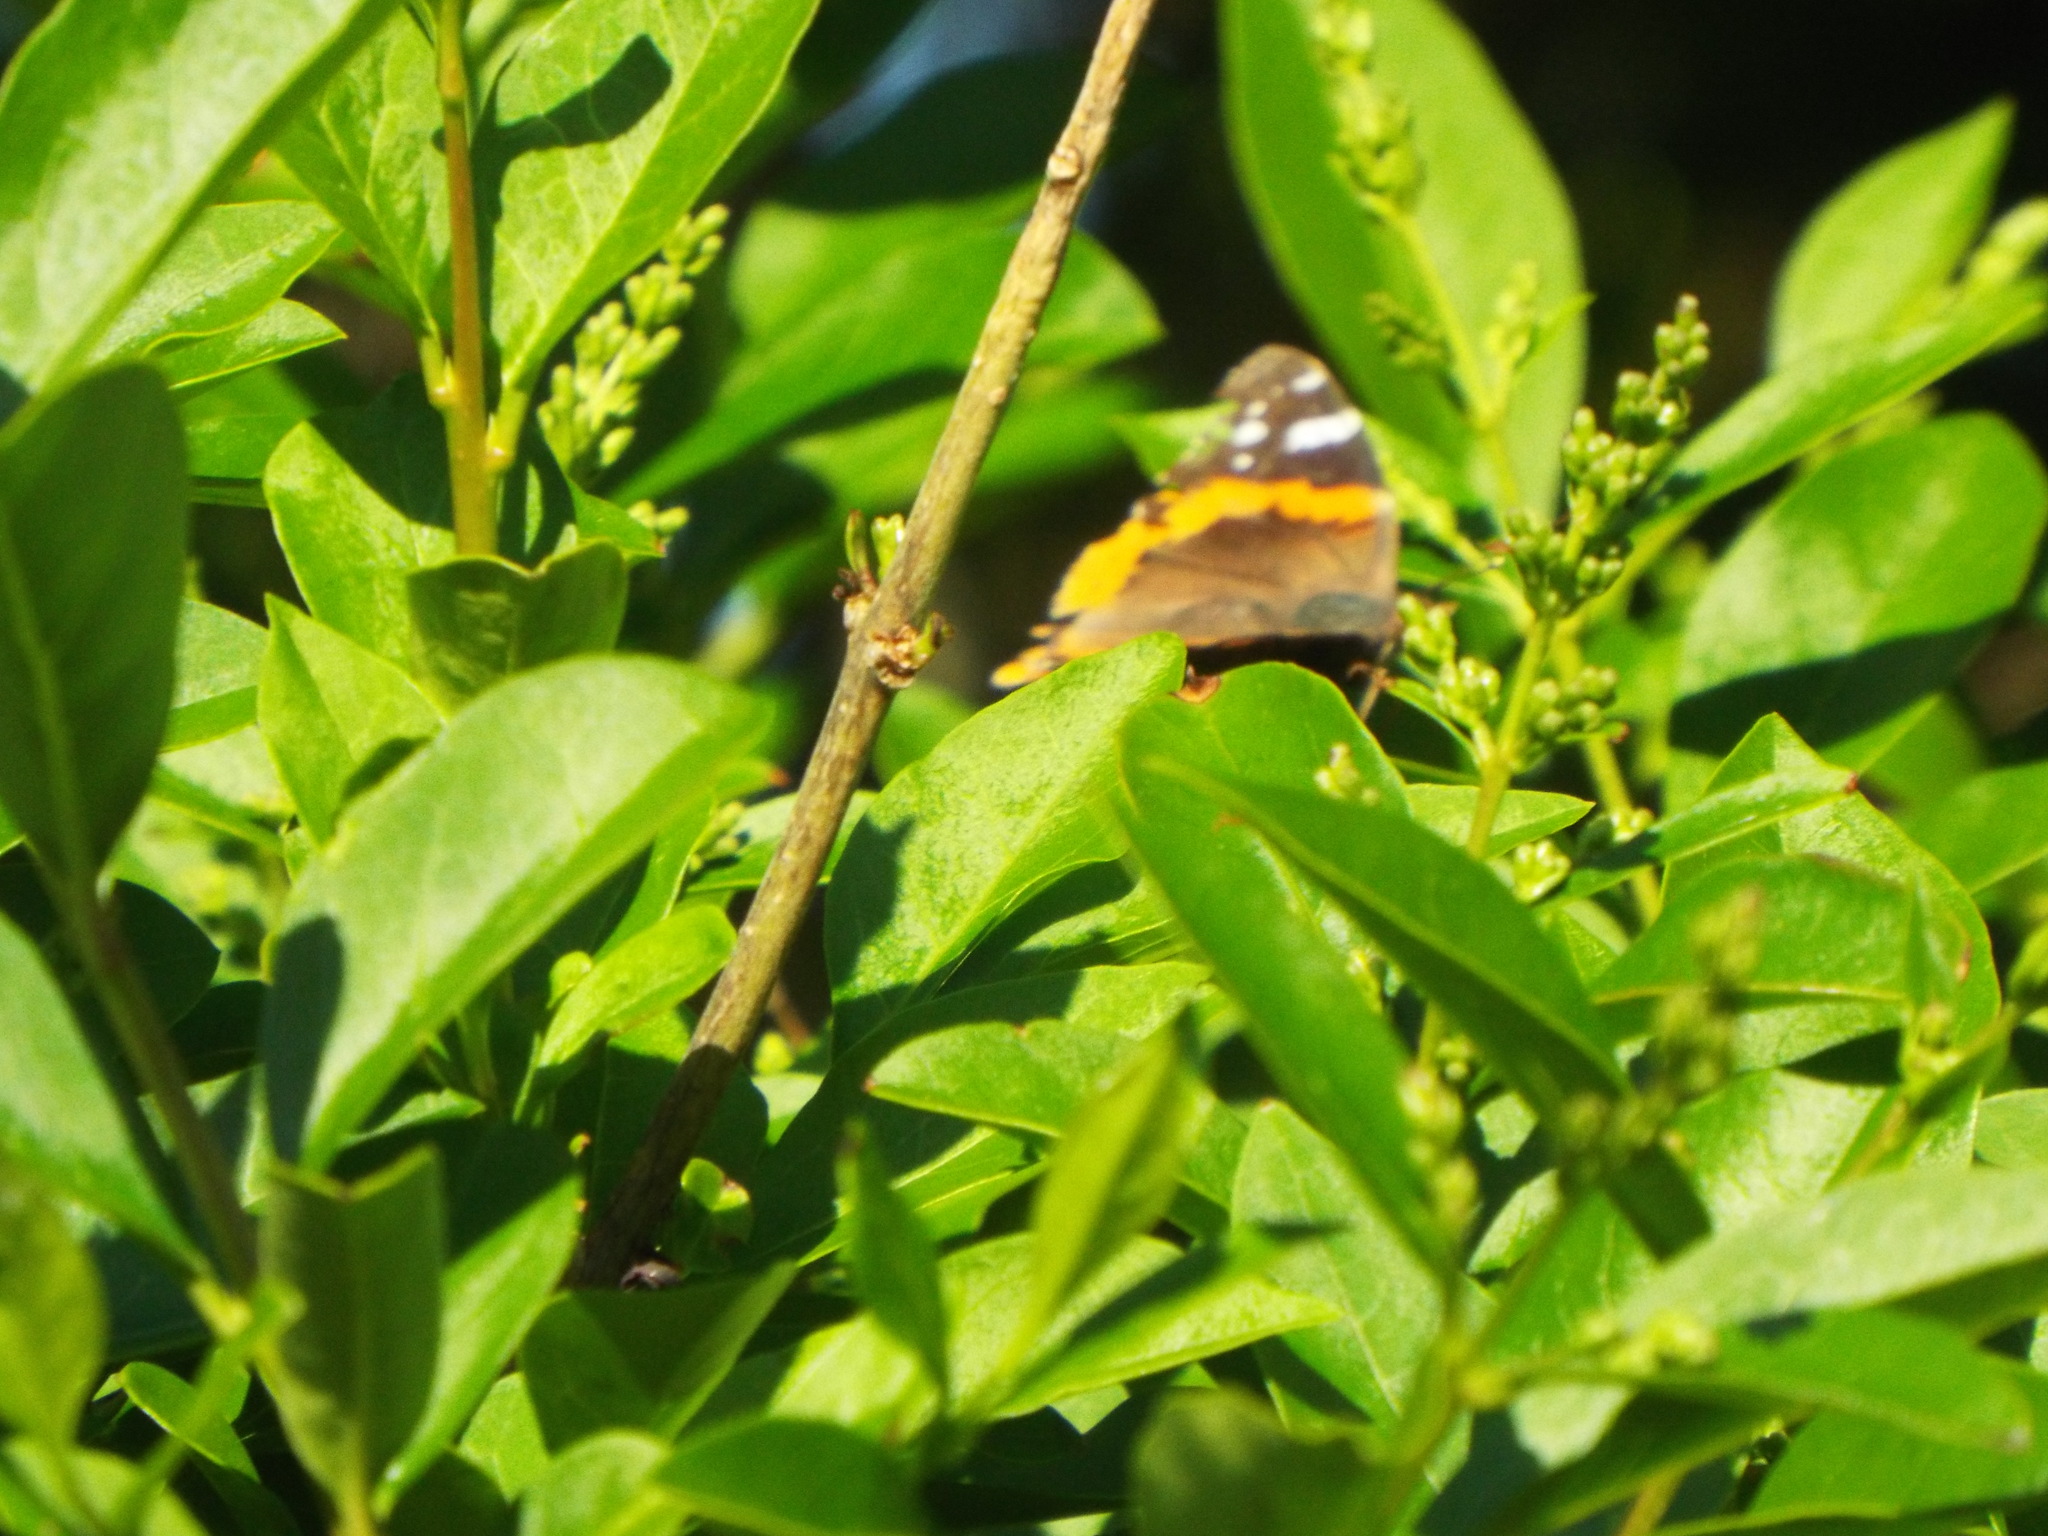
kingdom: Animalia
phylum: Arthropoda
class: Insecta
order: Lepidoptera
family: Nymphalidae
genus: Vanessa
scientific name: Vanessa atalanta
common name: Red admiral
